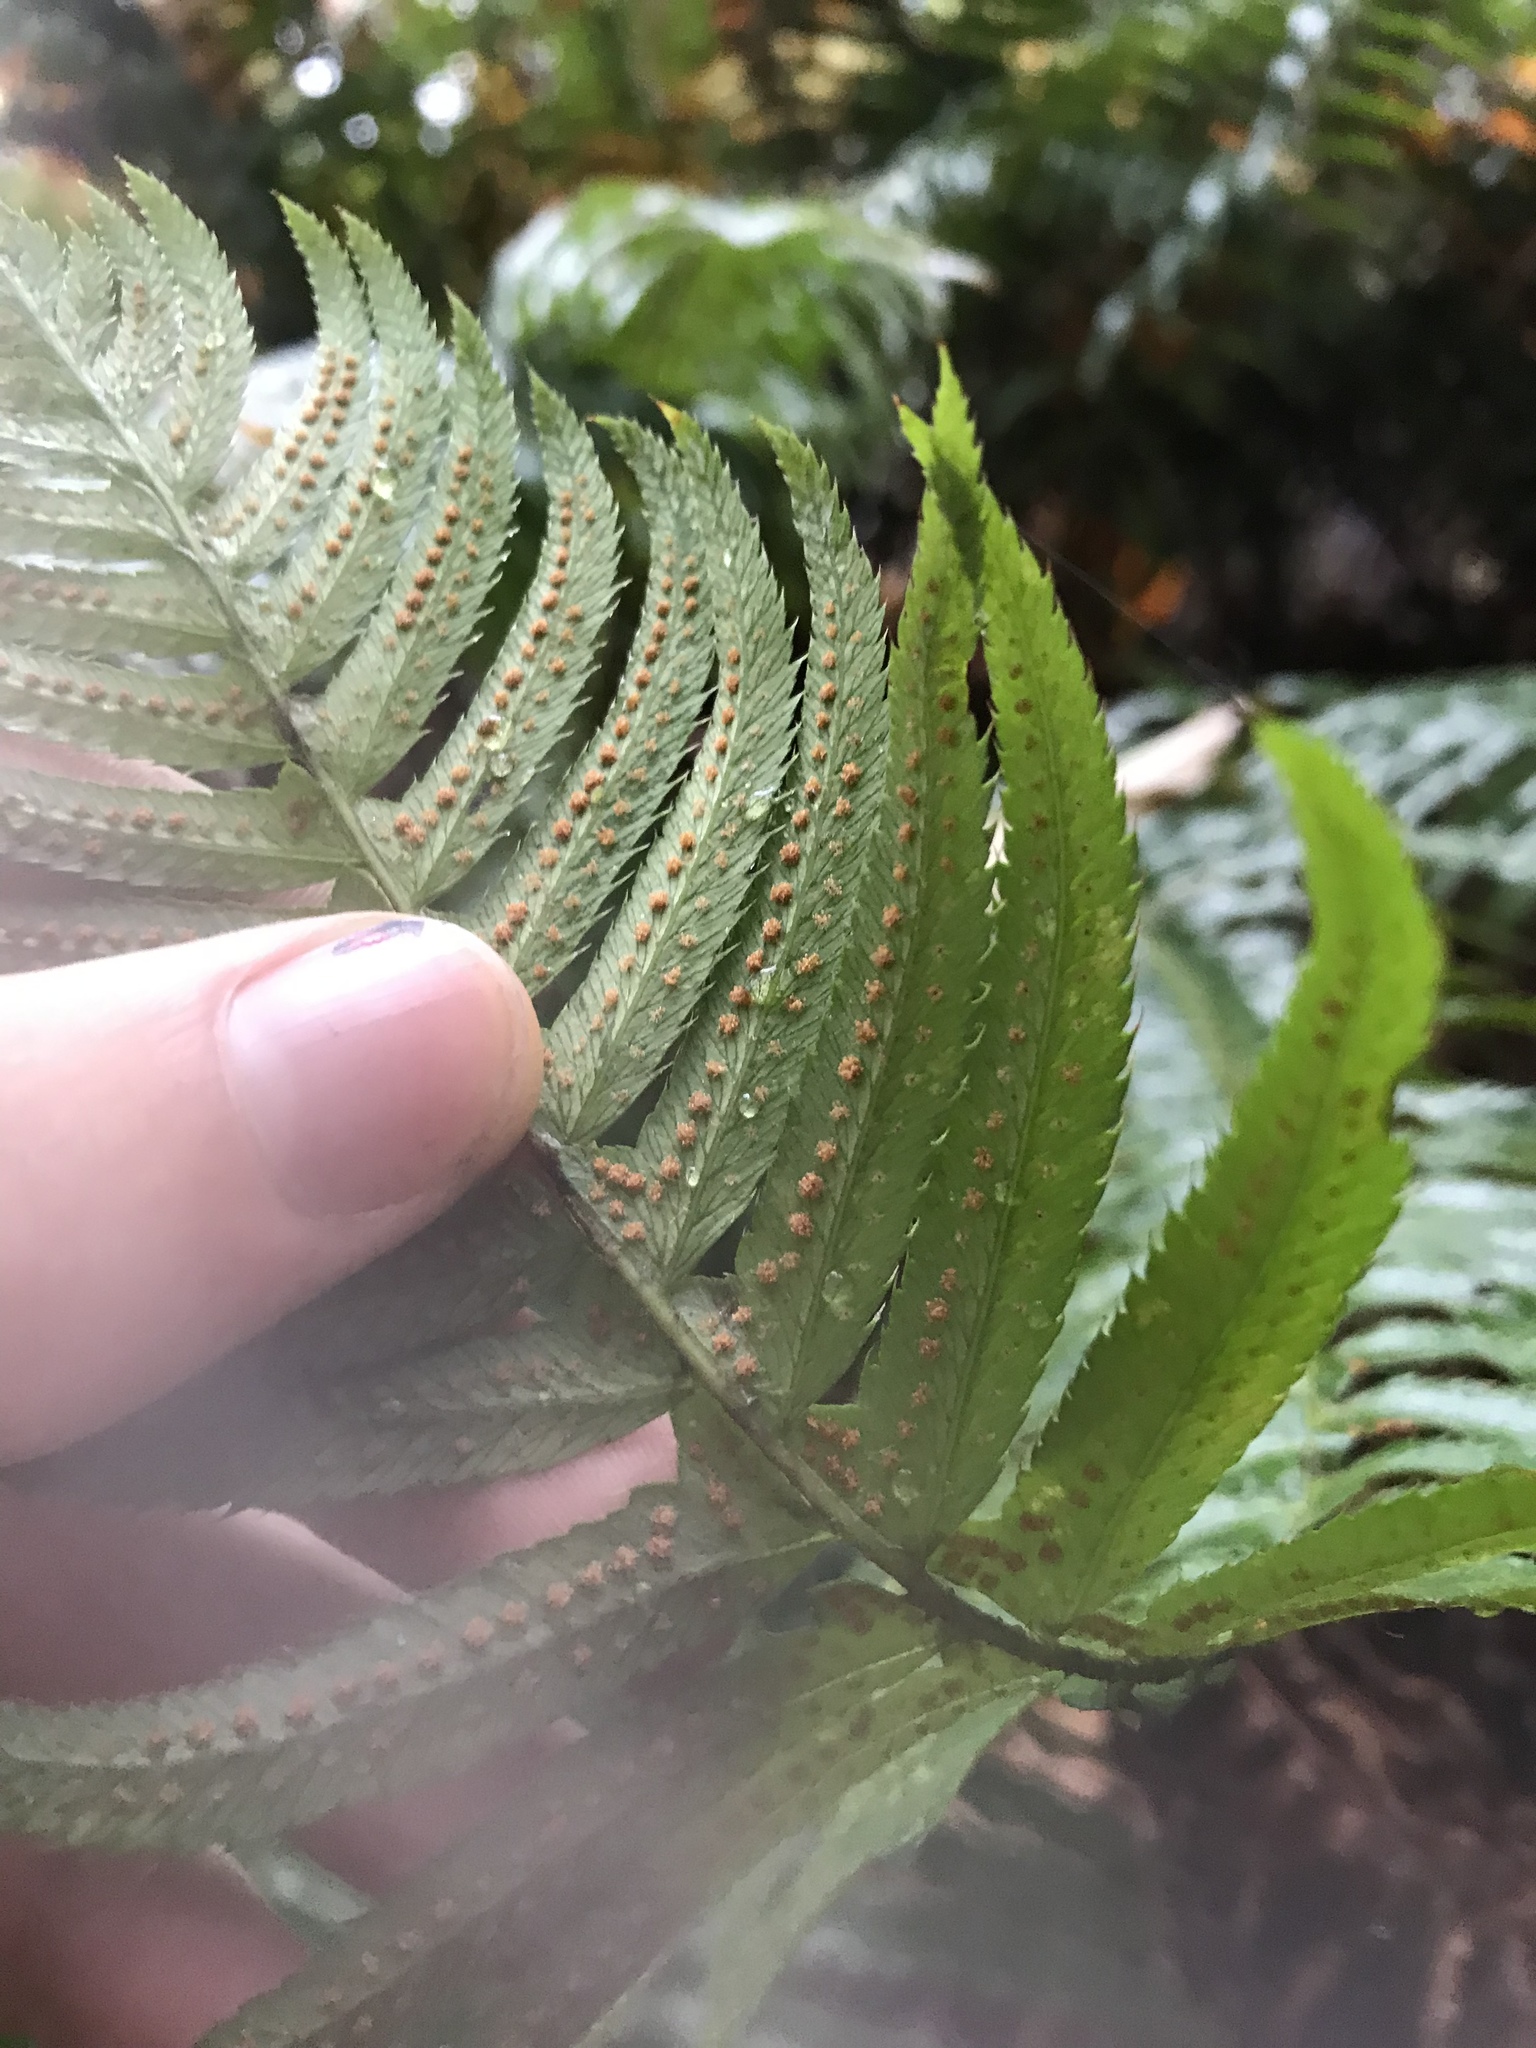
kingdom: Plantae
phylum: Tracheophyta
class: Polypodiopsida
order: Polypodiales
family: Dryopteridaceae
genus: Polystichum
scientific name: Polystichum munitum
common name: Western sword-fern
